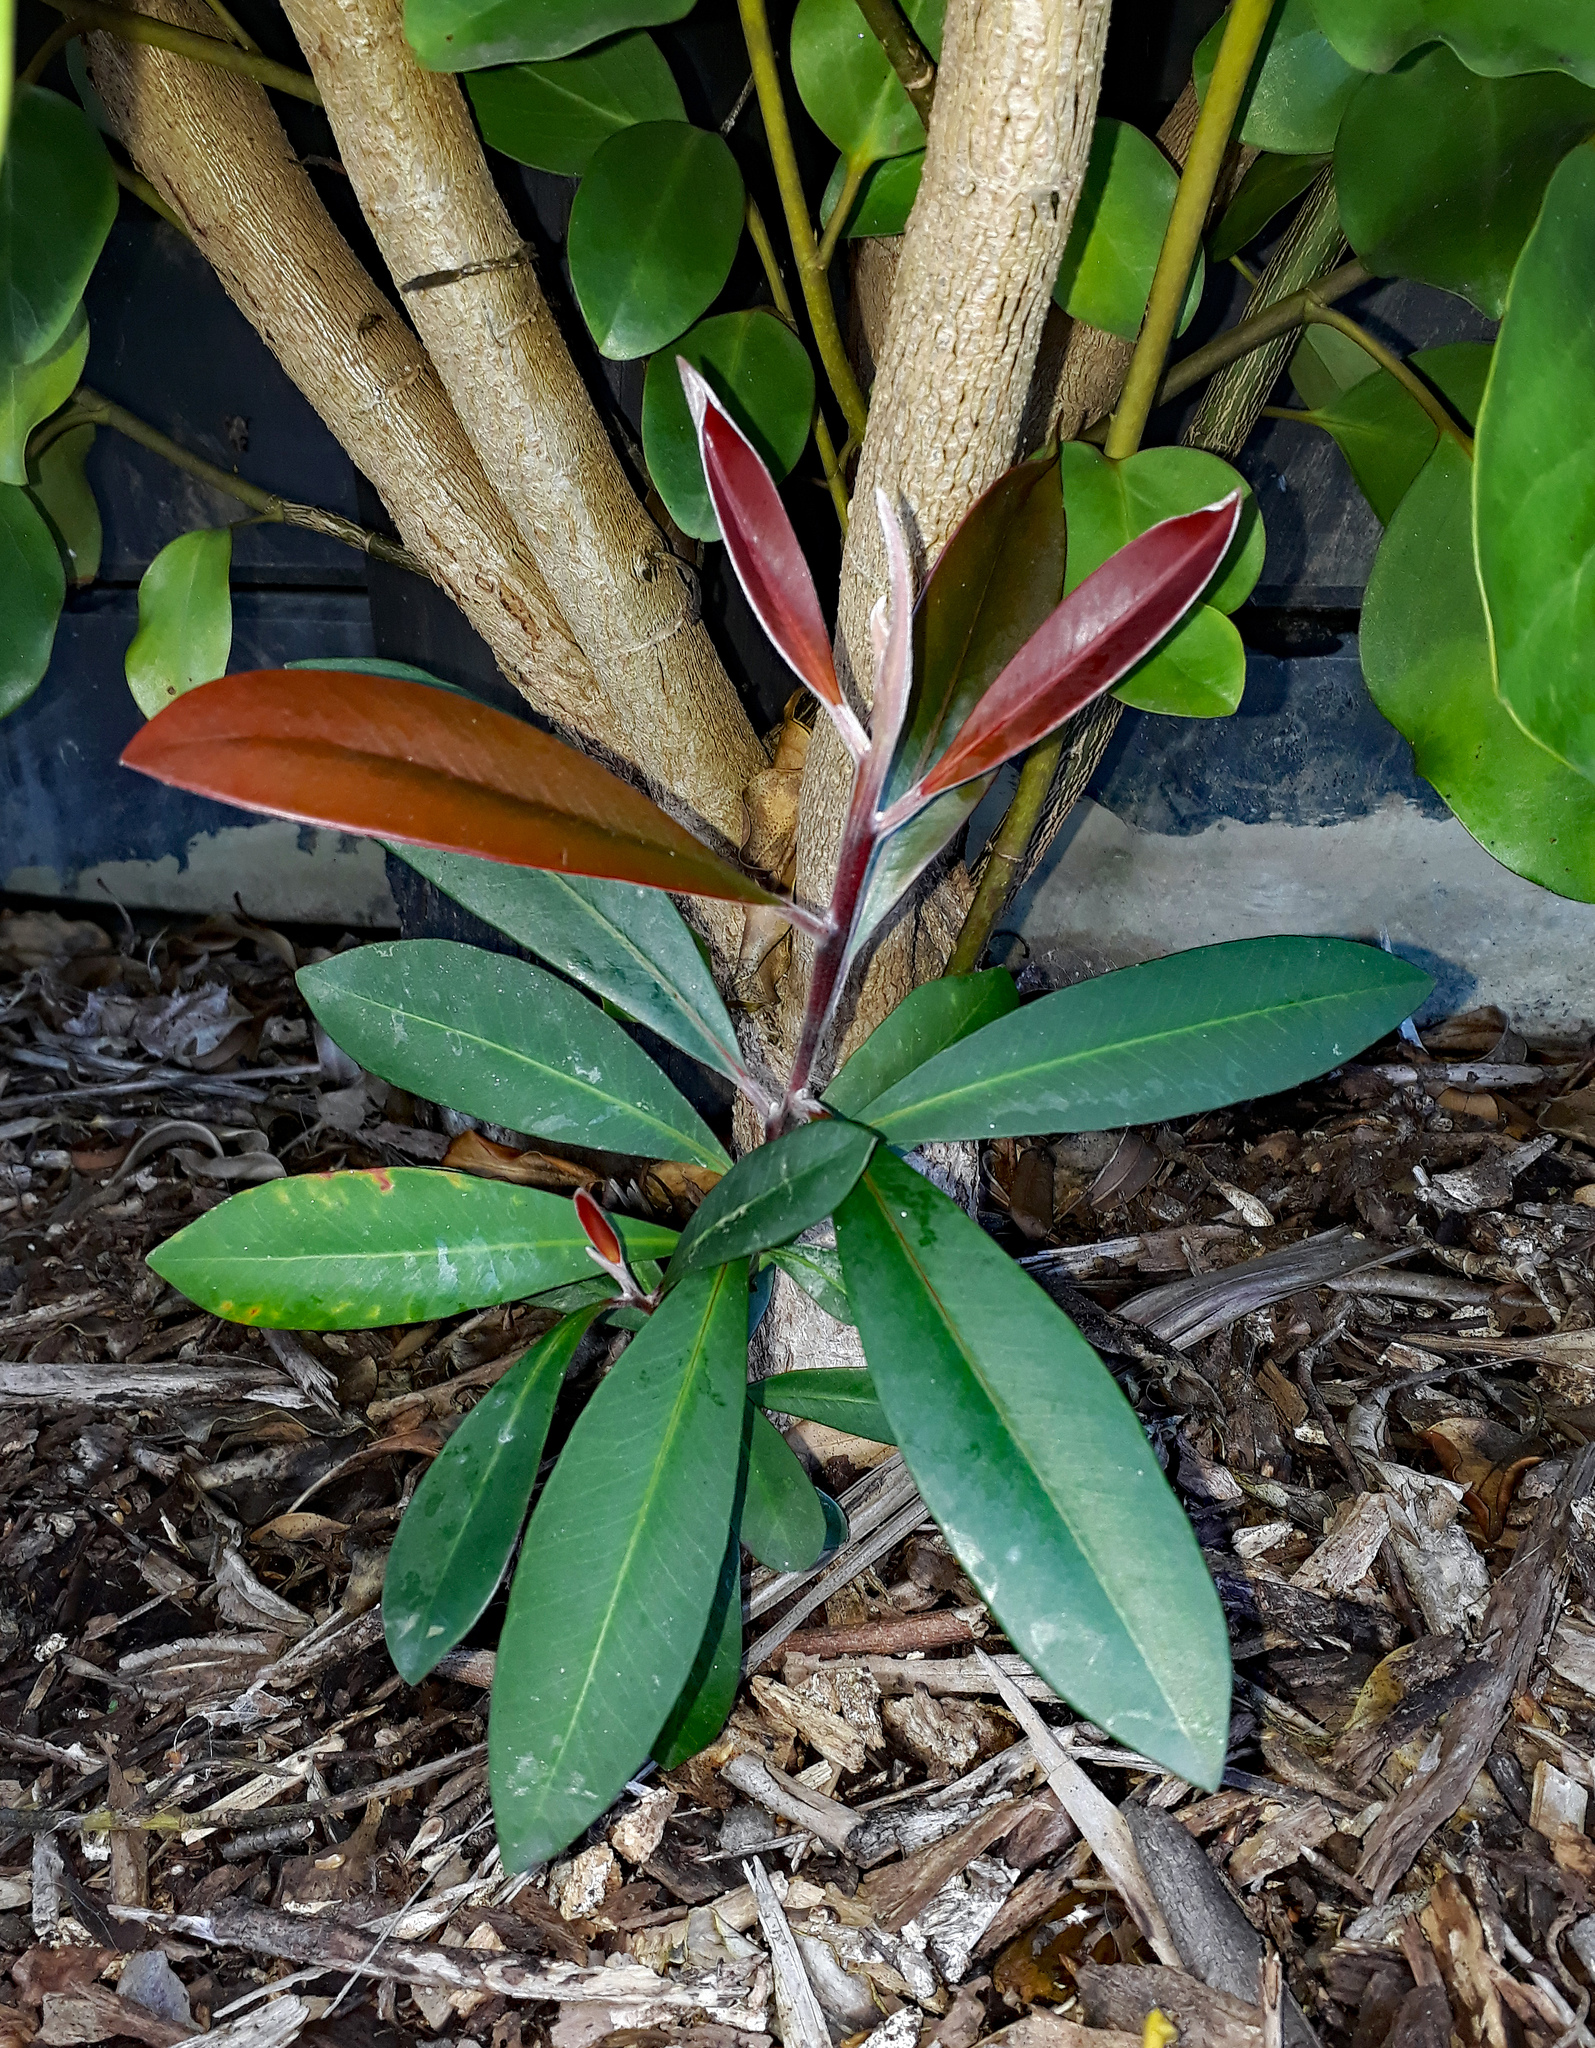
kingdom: Plantae
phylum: Tracheophyta
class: Magnoliopsida
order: Myrtales
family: Myrtaceae
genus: Tristaniopsis
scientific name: Tristaniopsis laurina
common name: Water-gum
